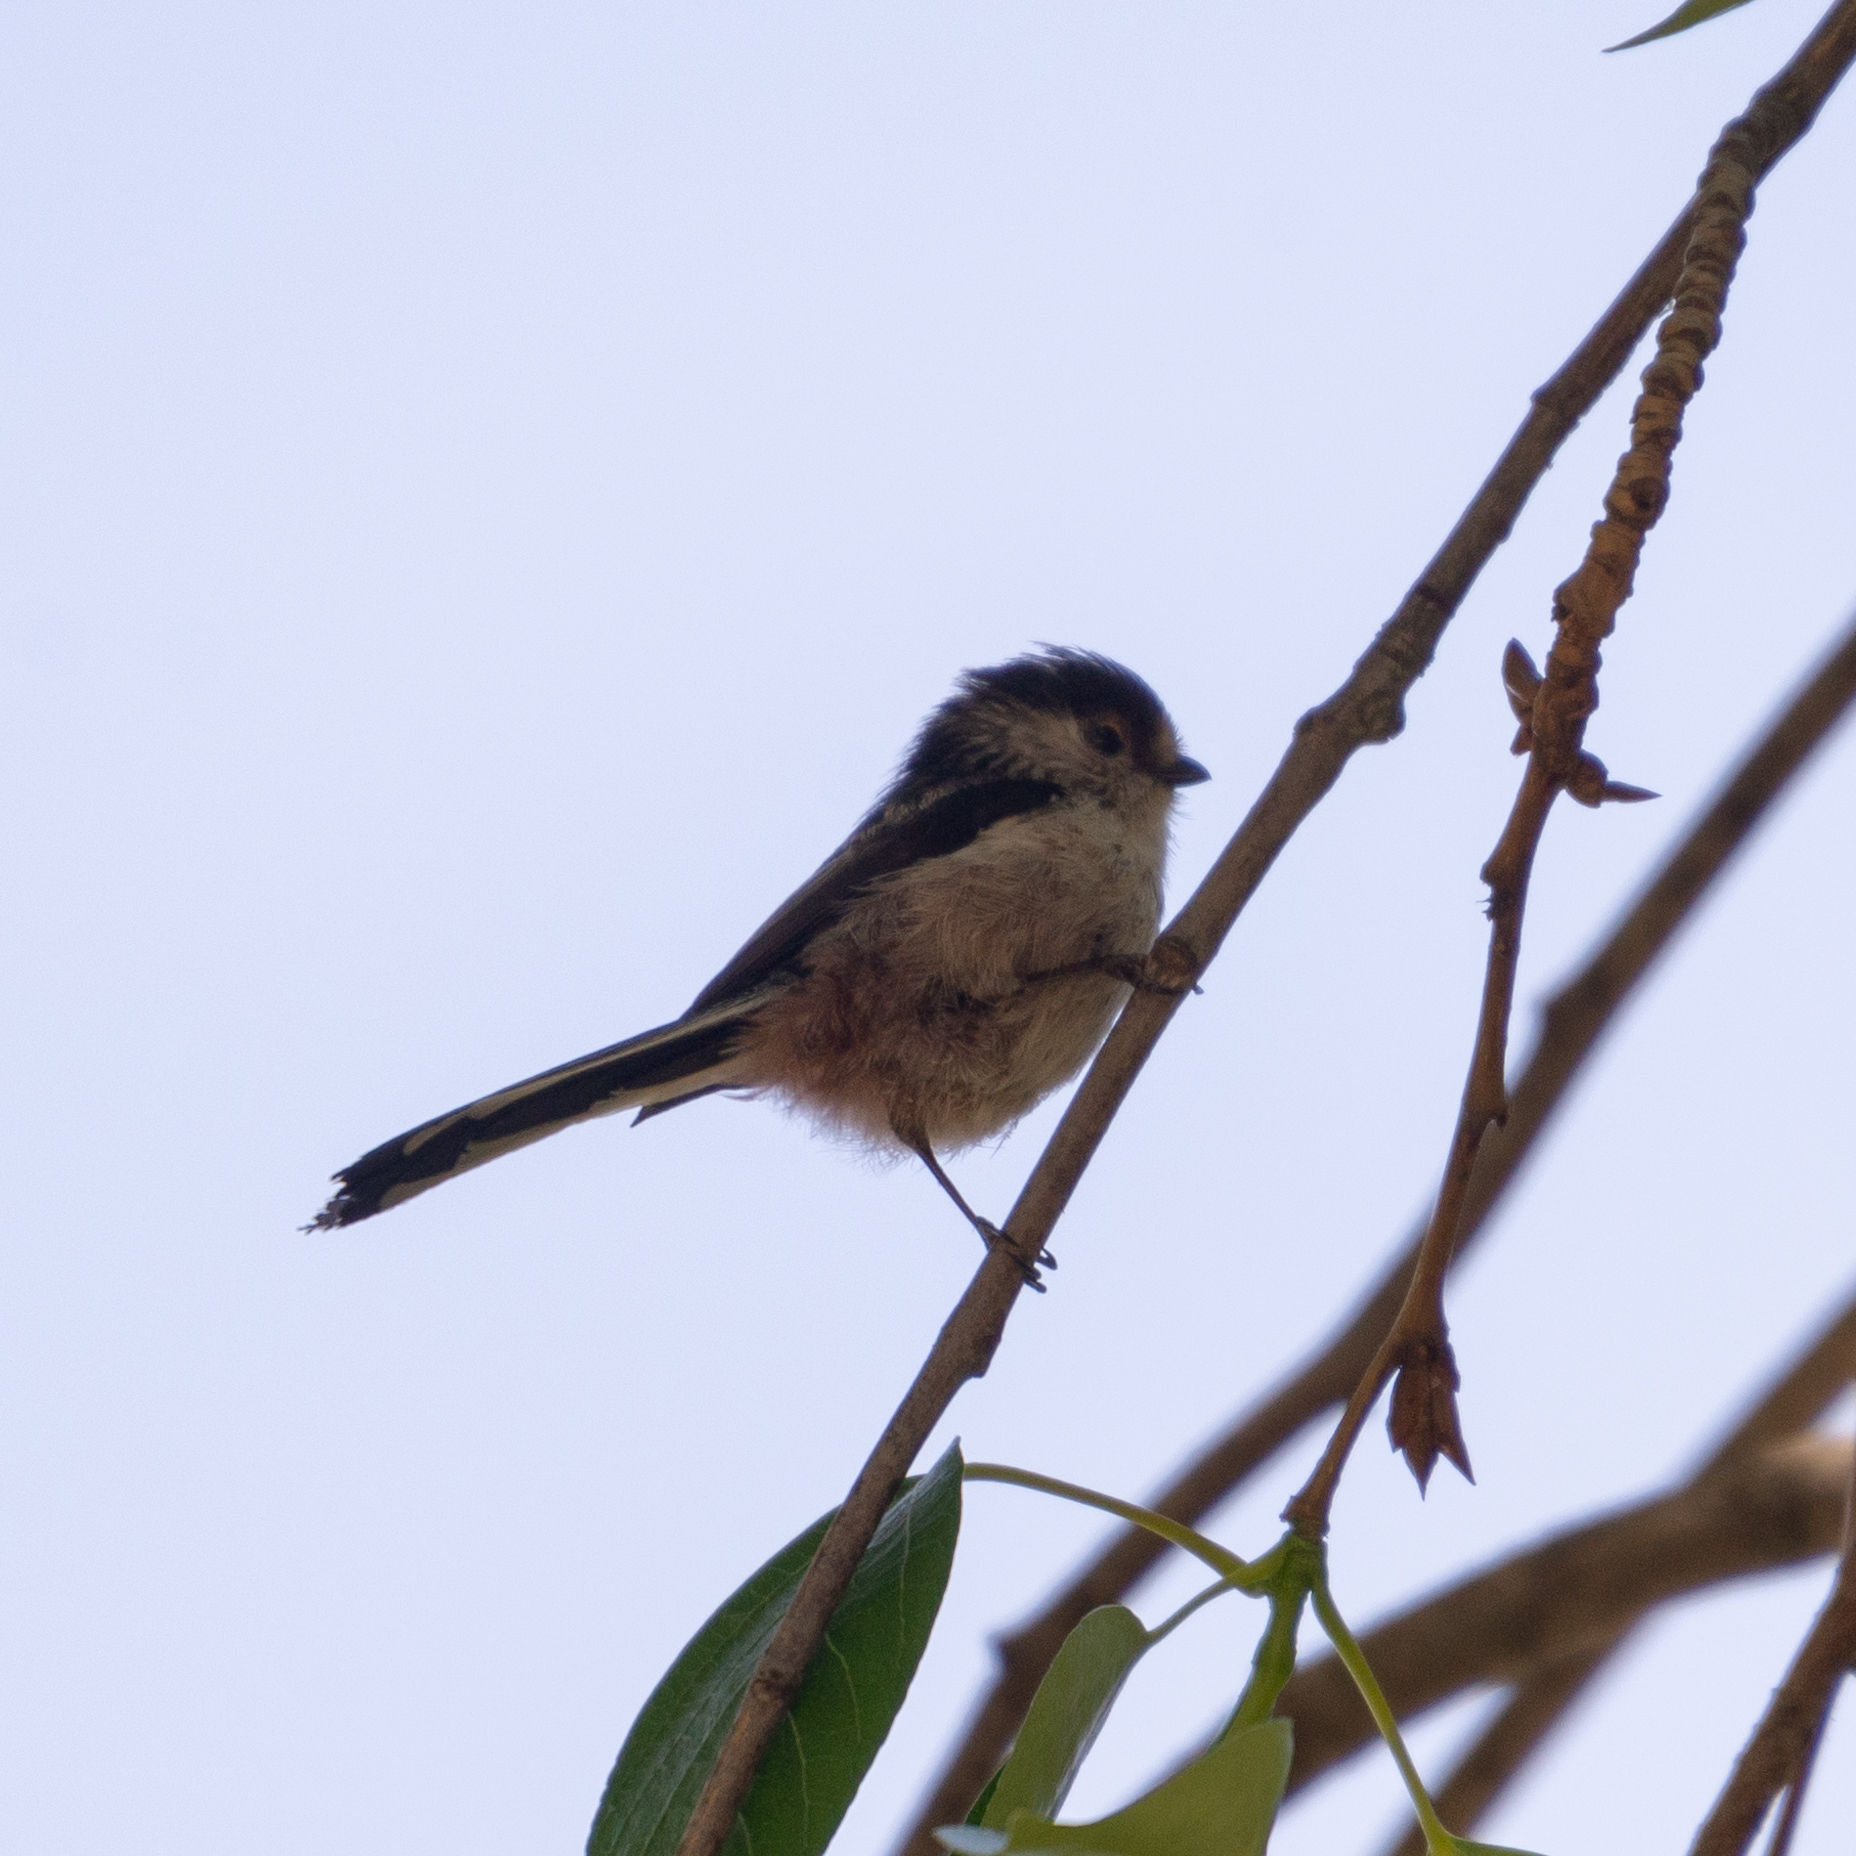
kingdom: Animalia
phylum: Chordata
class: Aves
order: Passeriformes
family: Aegithalidae
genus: Aegithalos
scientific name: Aegithalos caudatus
